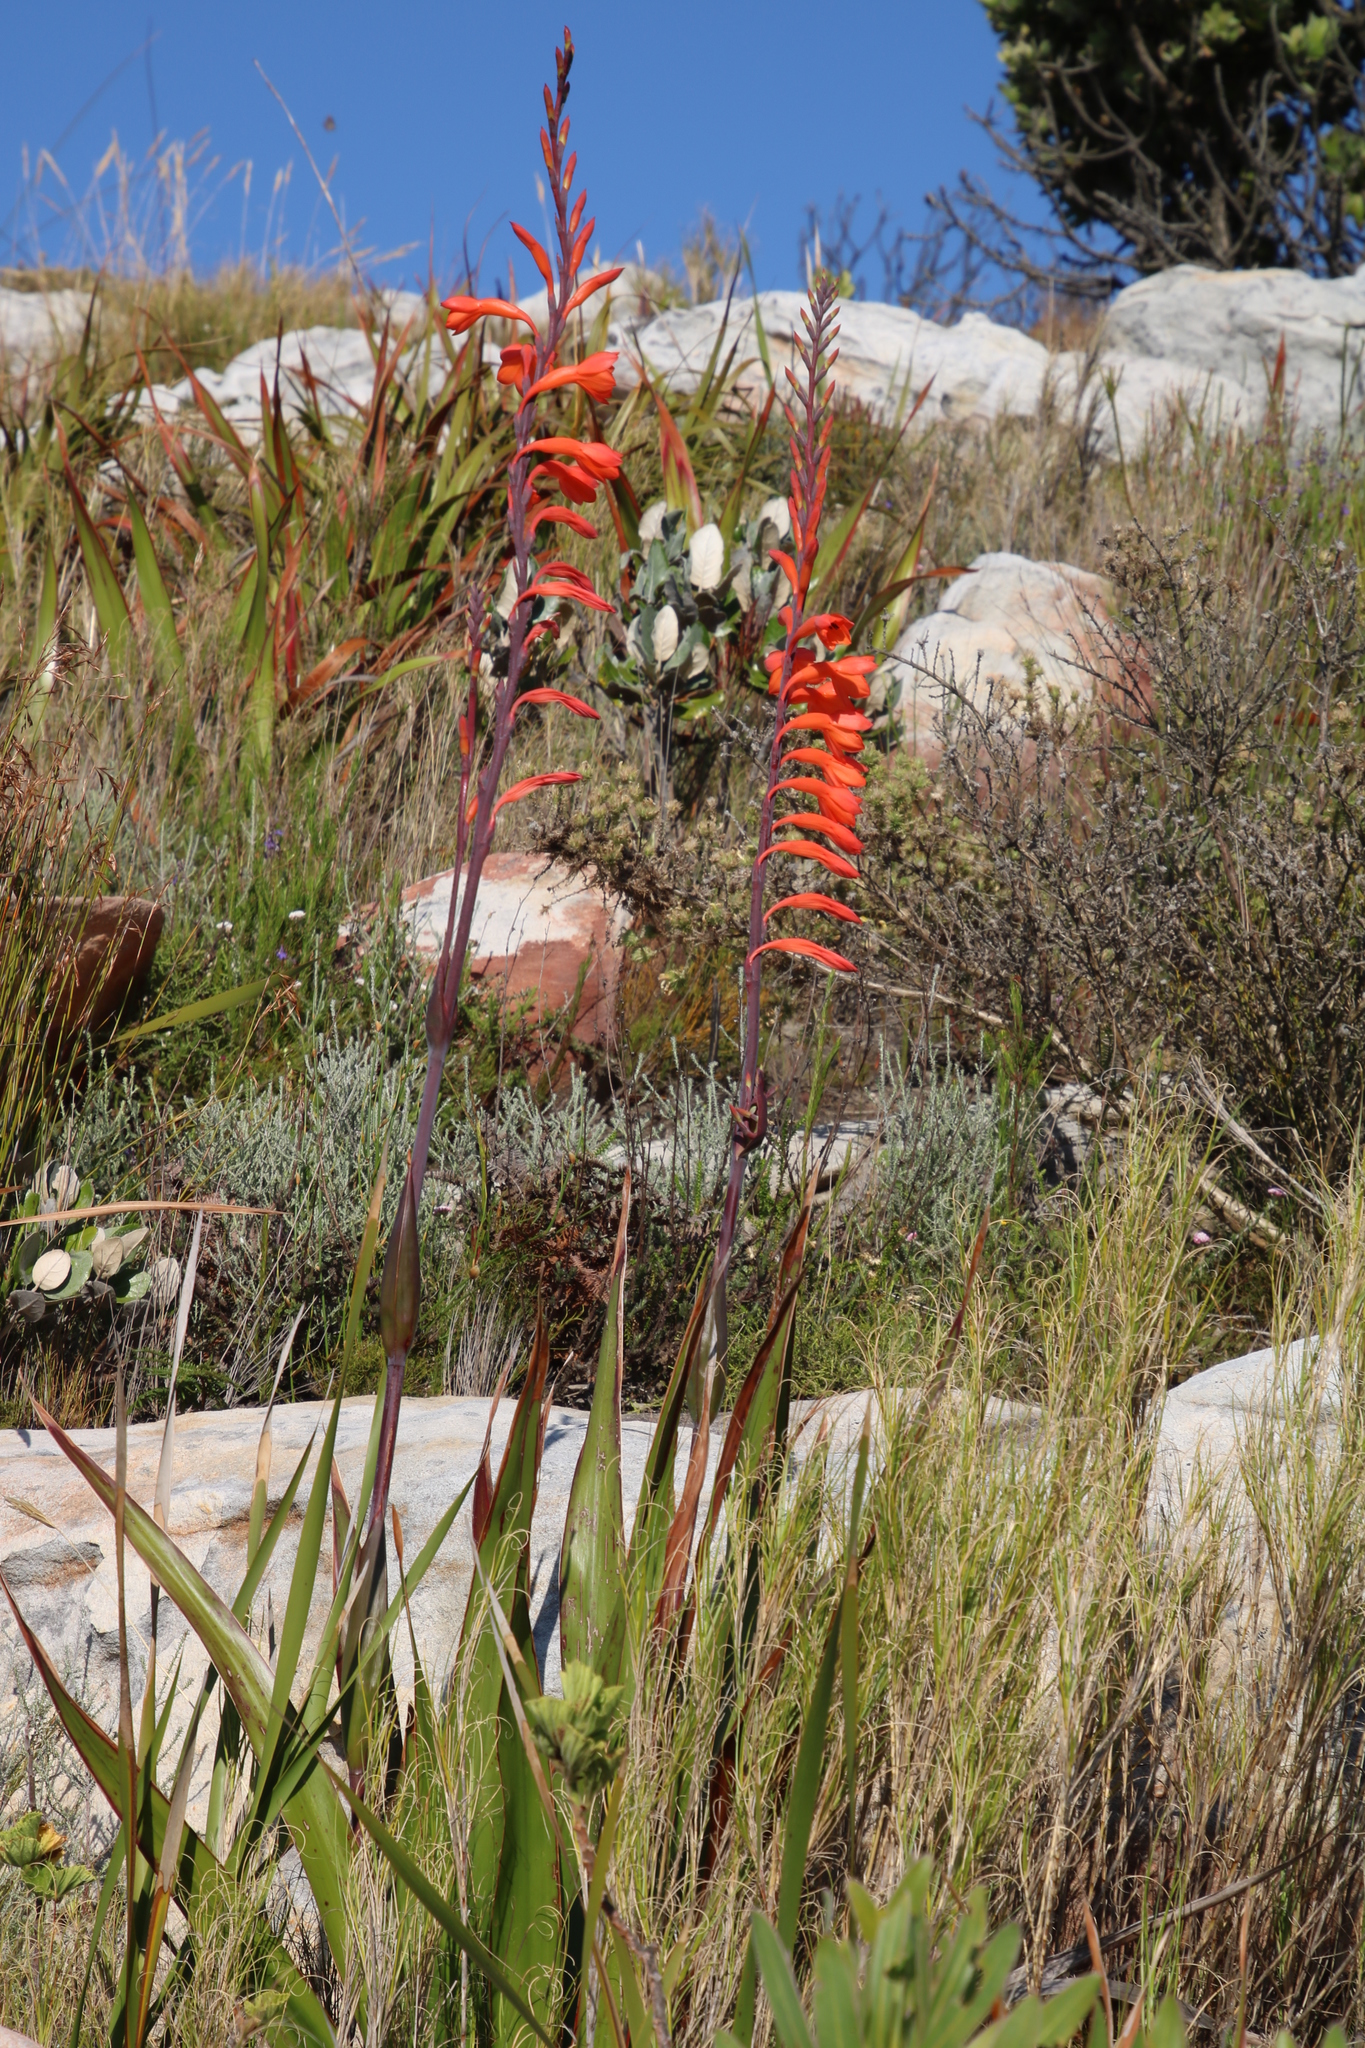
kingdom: Plantae
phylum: Tracheophyta
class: Liliopsida
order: Asparagales
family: Iridaceae
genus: Watsonia
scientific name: Watsonia tabularis
